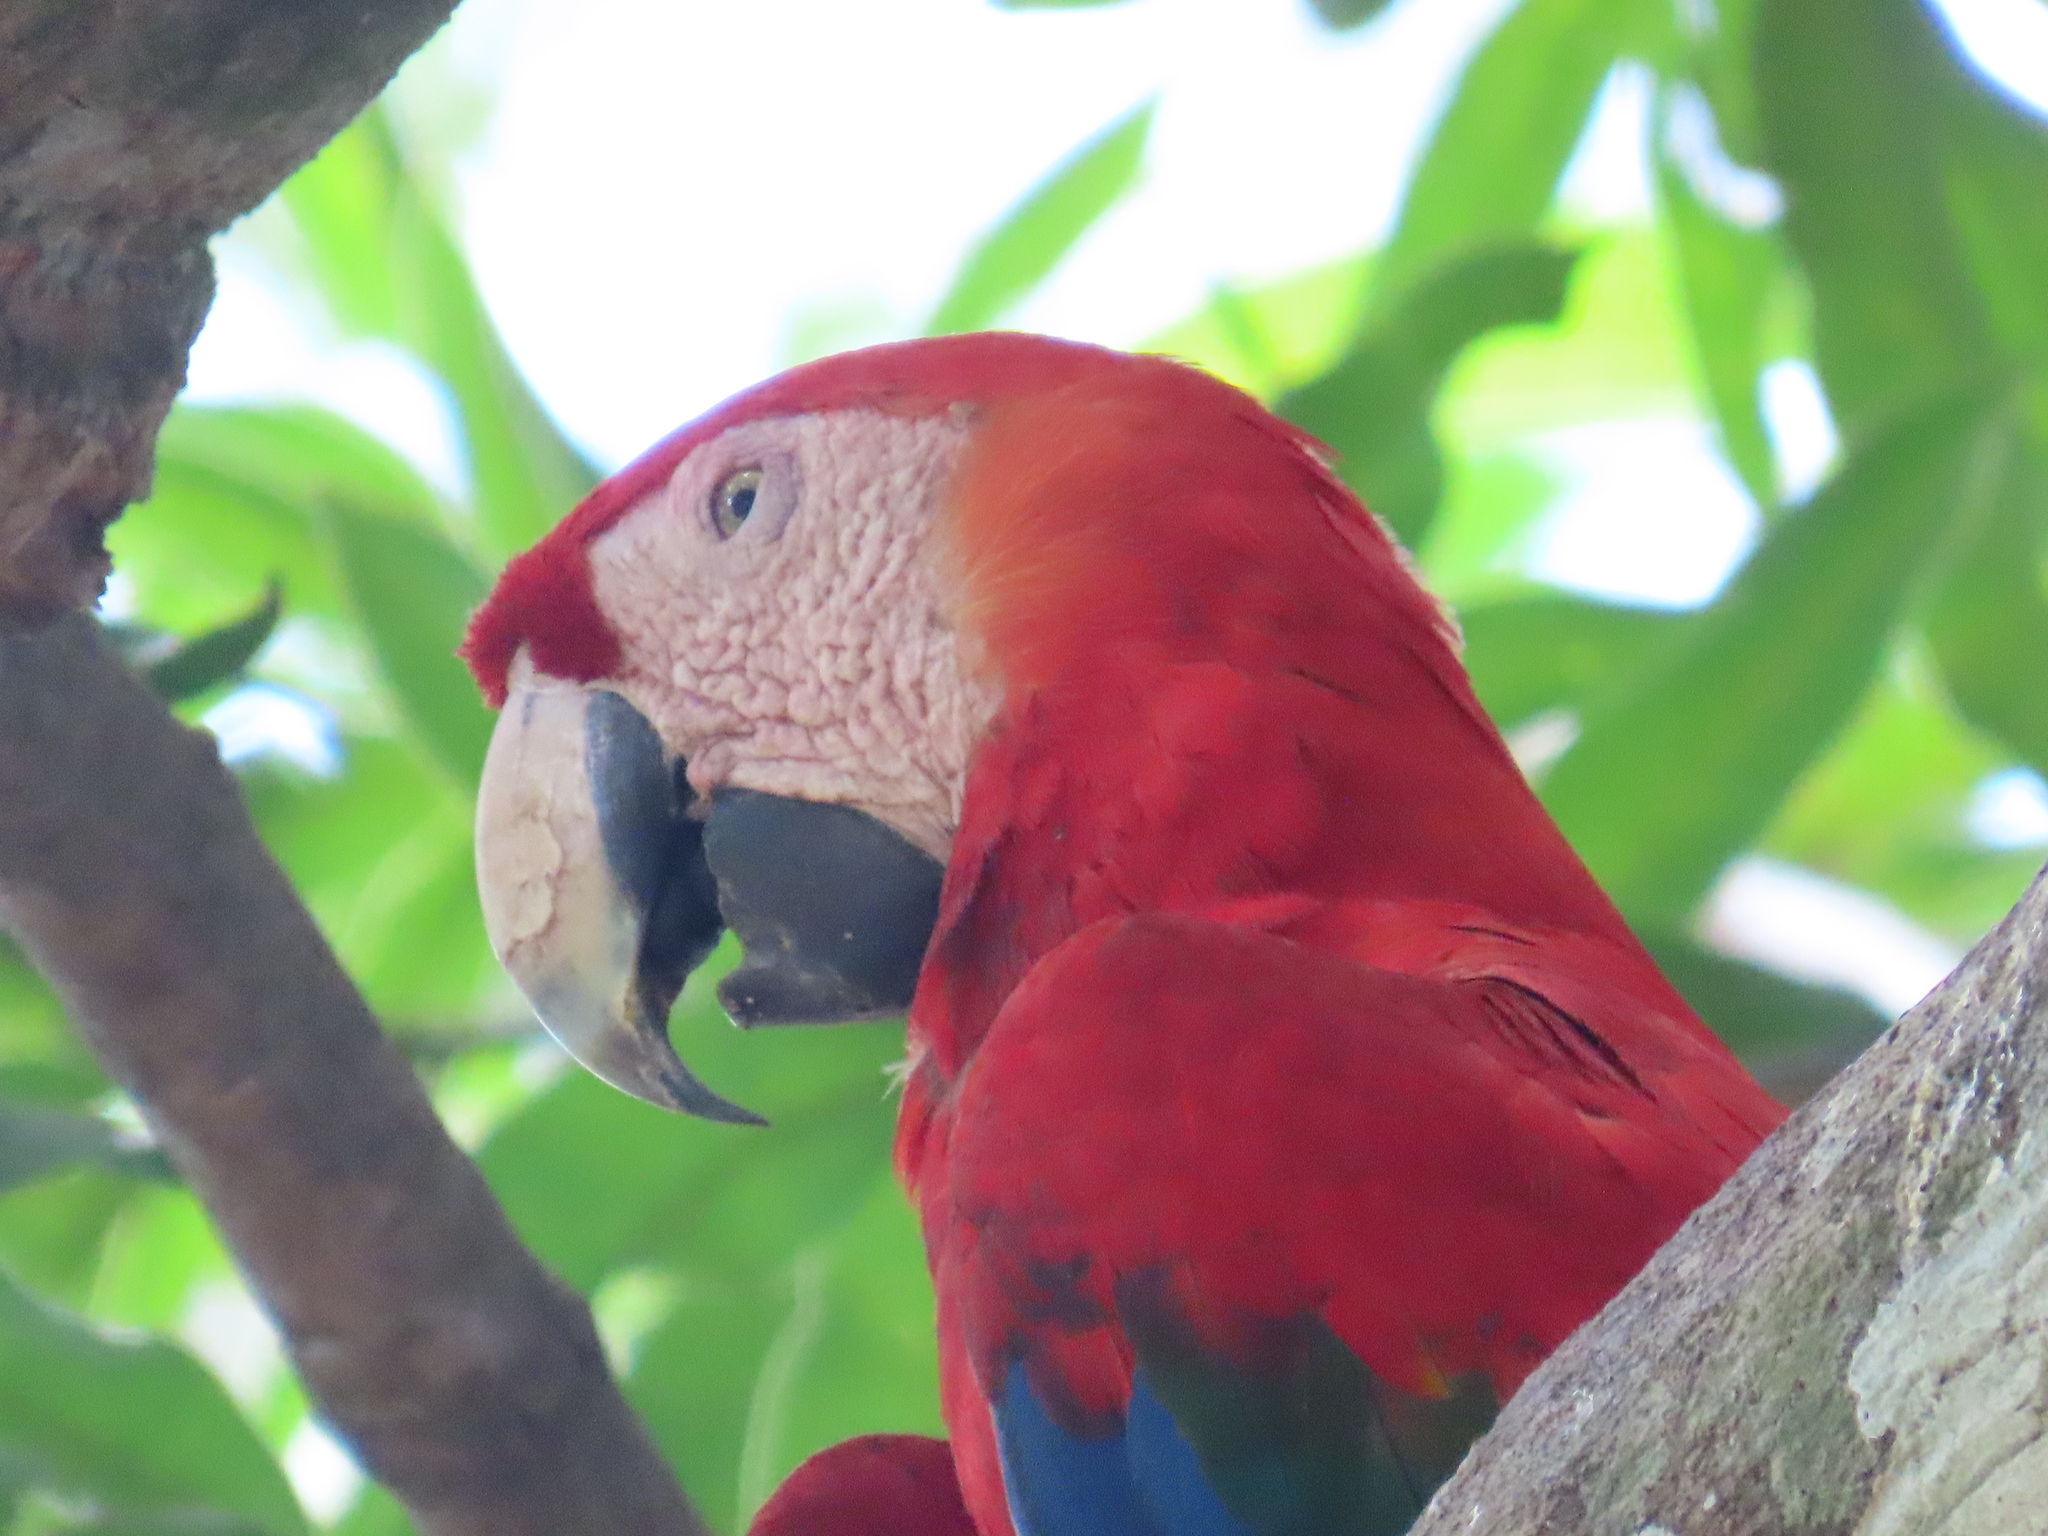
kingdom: Animalia
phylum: Chordata
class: Aves
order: Psittaciformes
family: Psittacidae
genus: Ara
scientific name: Ara macao
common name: Scarlet macaw
